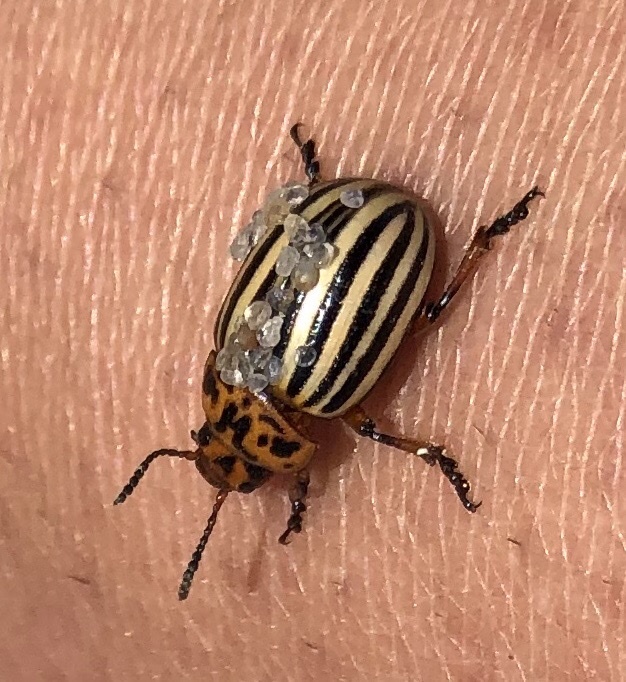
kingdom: Animalia
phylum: Arthropoda
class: Insecta
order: Coleoptera
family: Chrysomelidae
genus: Leptinotarsa
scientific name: Leptinotarsa decemlineata
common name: Colorado potato beetle
